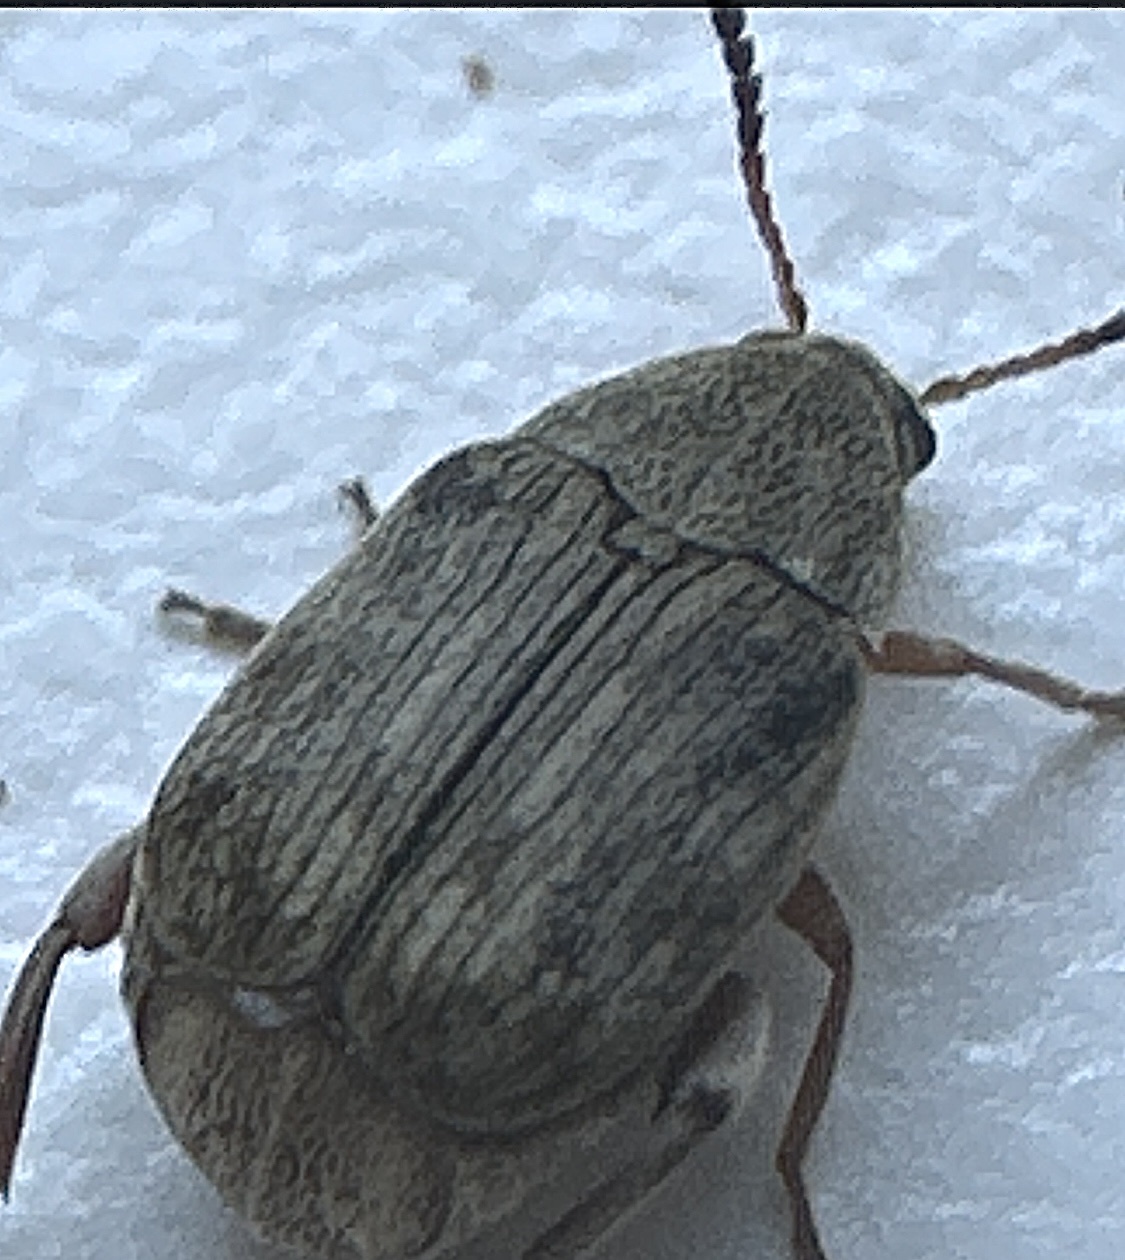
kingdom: Animalia
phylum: Arthropoda
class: Insecta
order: Coleoptera
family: Chrysomelidae
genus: Acanthoscelides
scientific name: Acanthoscelides obtectus
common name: Bean weevil
